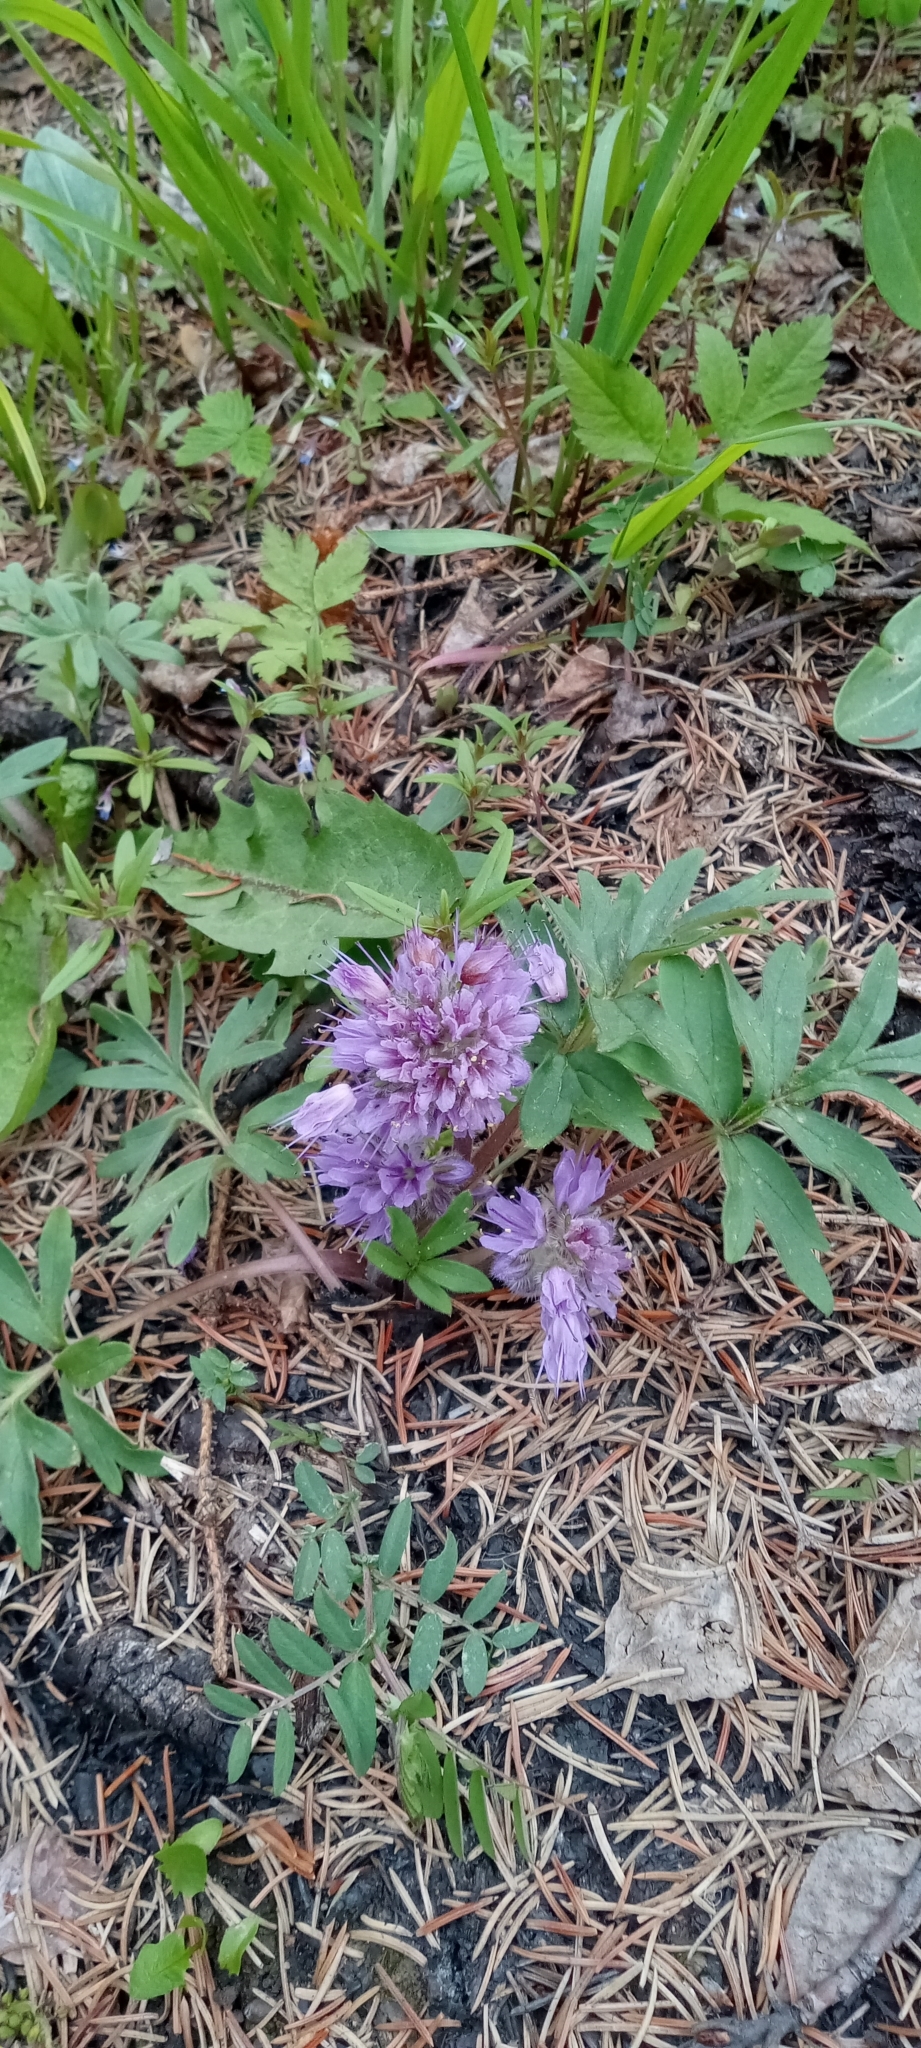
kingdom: Plantae
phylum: Tracheophyta
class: Magnoliopsida
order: Boraginales
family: Hydrophyllaceae
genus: Hydrophyllum
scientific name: Hydrophyllum capitatum
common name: Woollen-breeches
